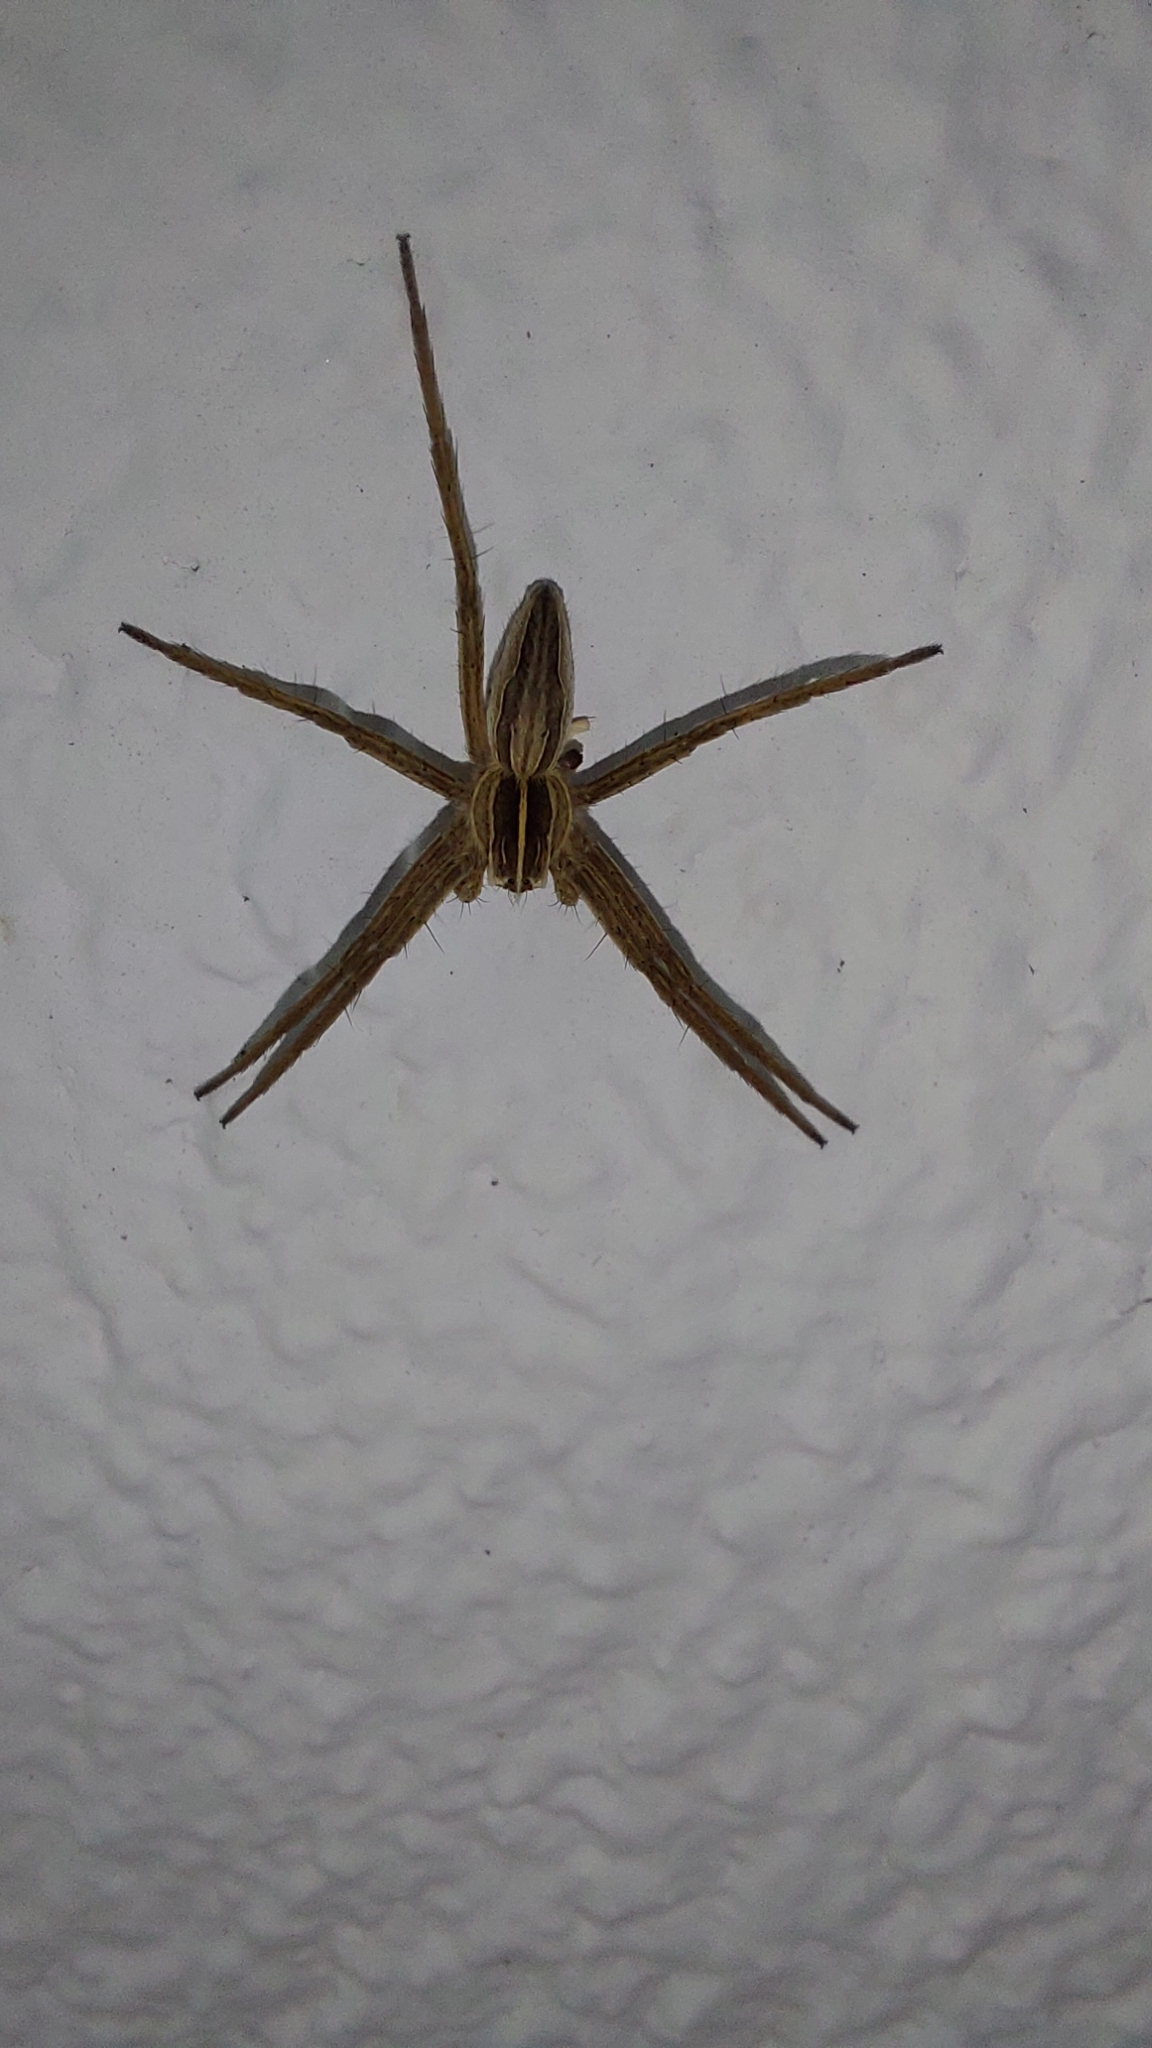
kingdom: Animalia
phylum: Arthropoda
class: Arachnida
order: Araneae
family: Pisauridae
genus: Pisaura
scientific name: Pisaura mirabilis
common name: Tent spider
